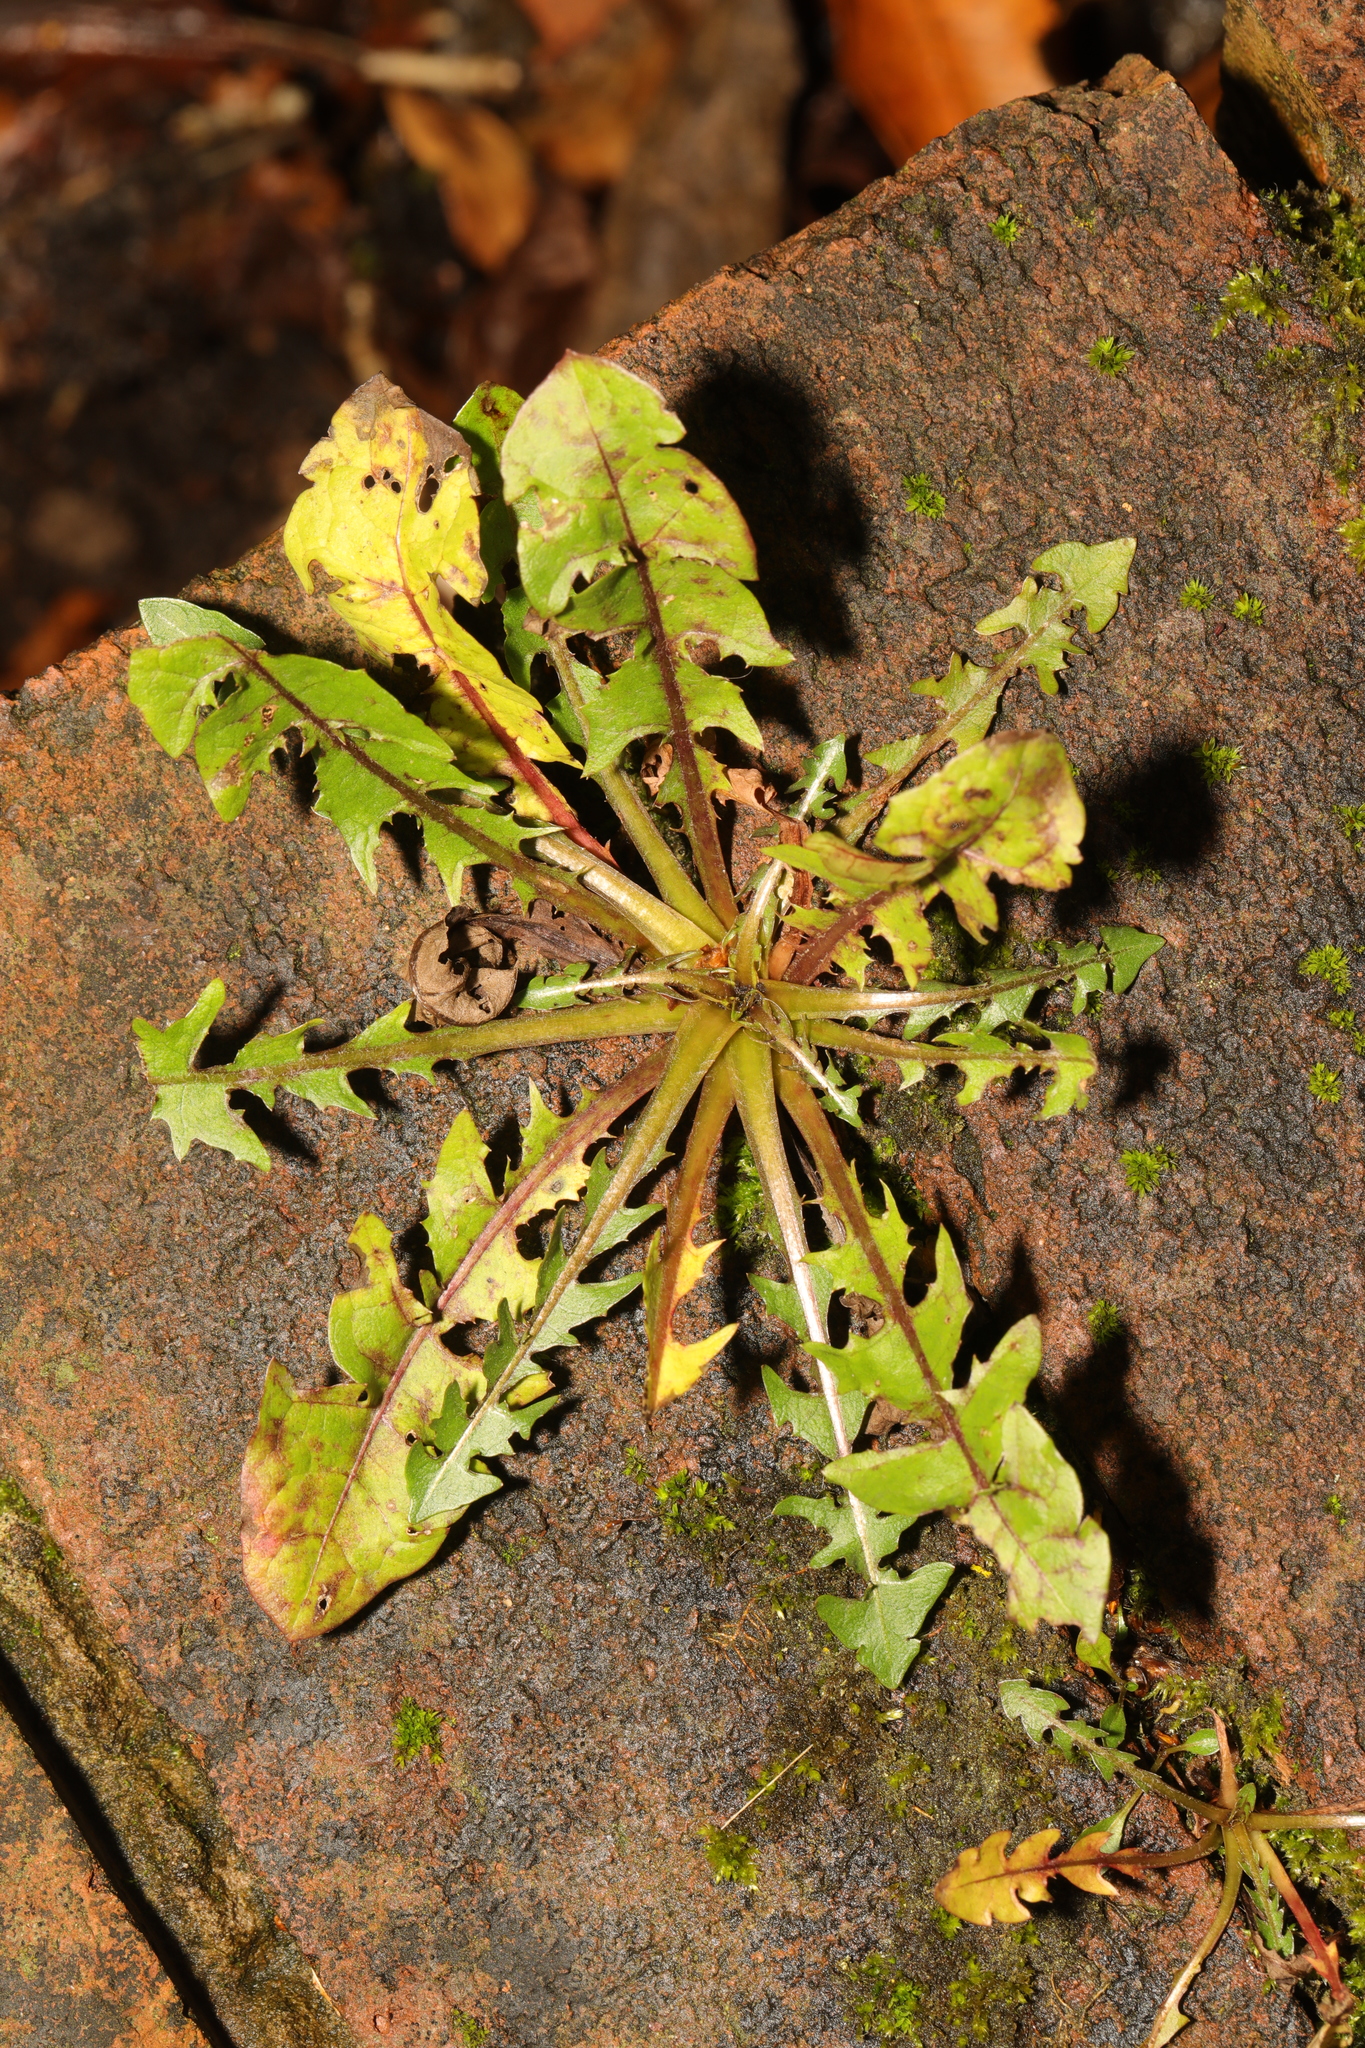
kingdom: Plantae
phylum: Tracheophyta
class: Magnoliopsida
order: Asterales
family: Asteraceae
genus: Taraxacum
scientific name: Taraxacum officinale
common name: Common dandelion
